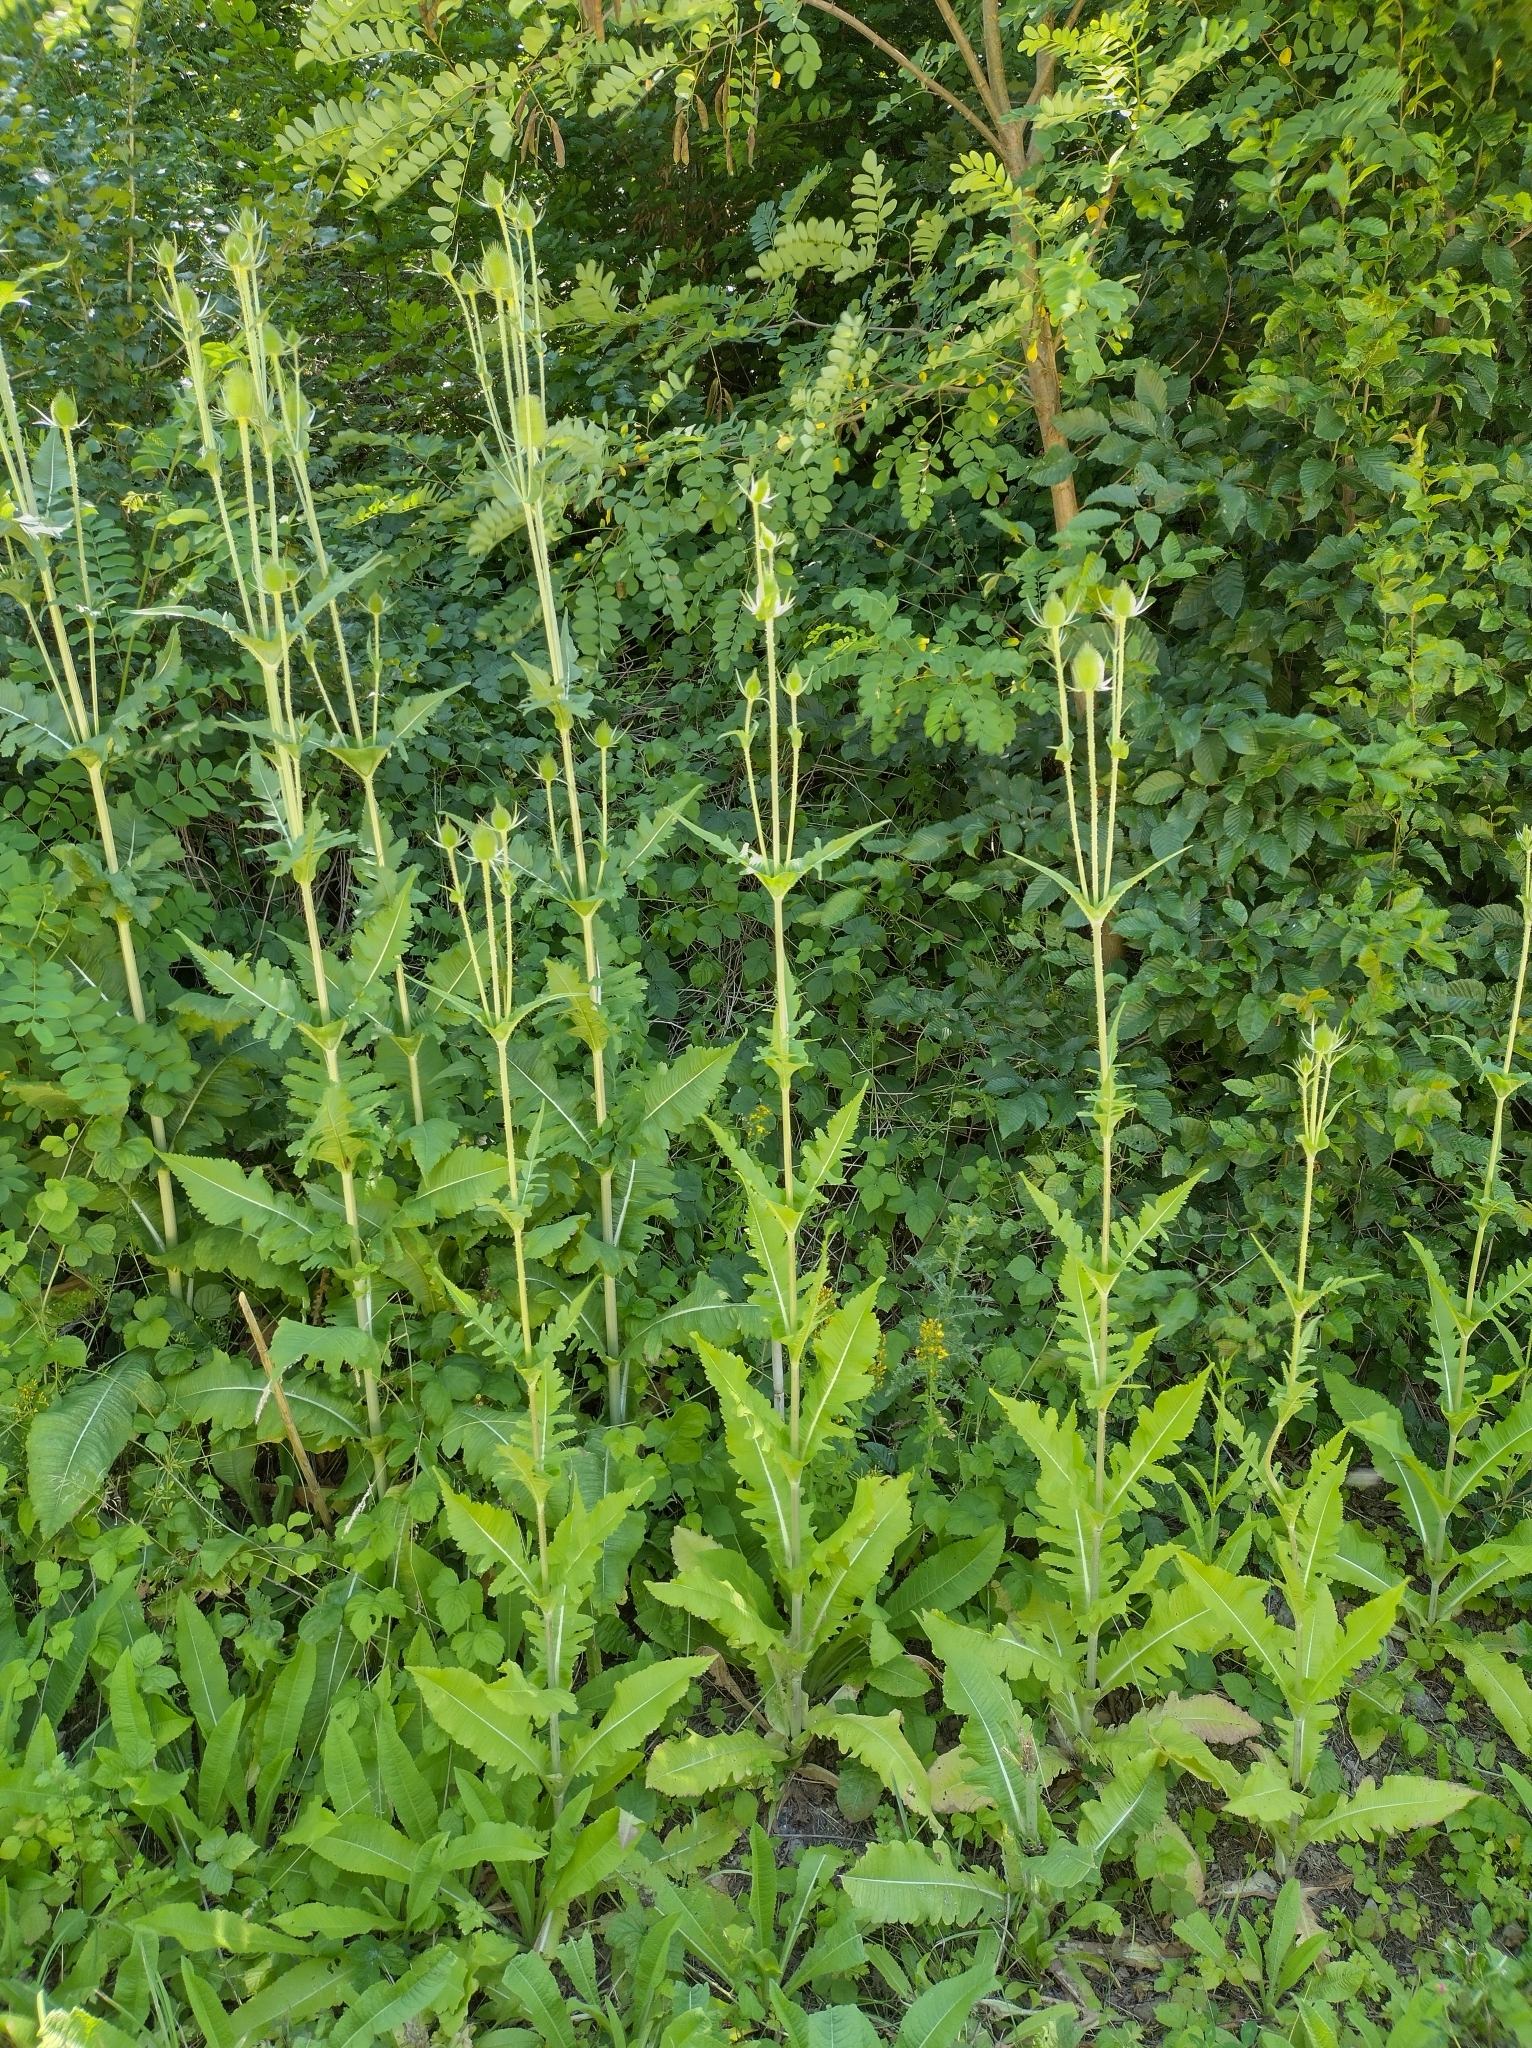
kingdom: Plantae
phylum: Tracheophyta
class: Magnoliopsida
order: Dipsacales
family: Caprifoliaceae
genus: Dipsacus
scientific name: Dipsacus laciniatus
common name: Cut-leaved teasel
